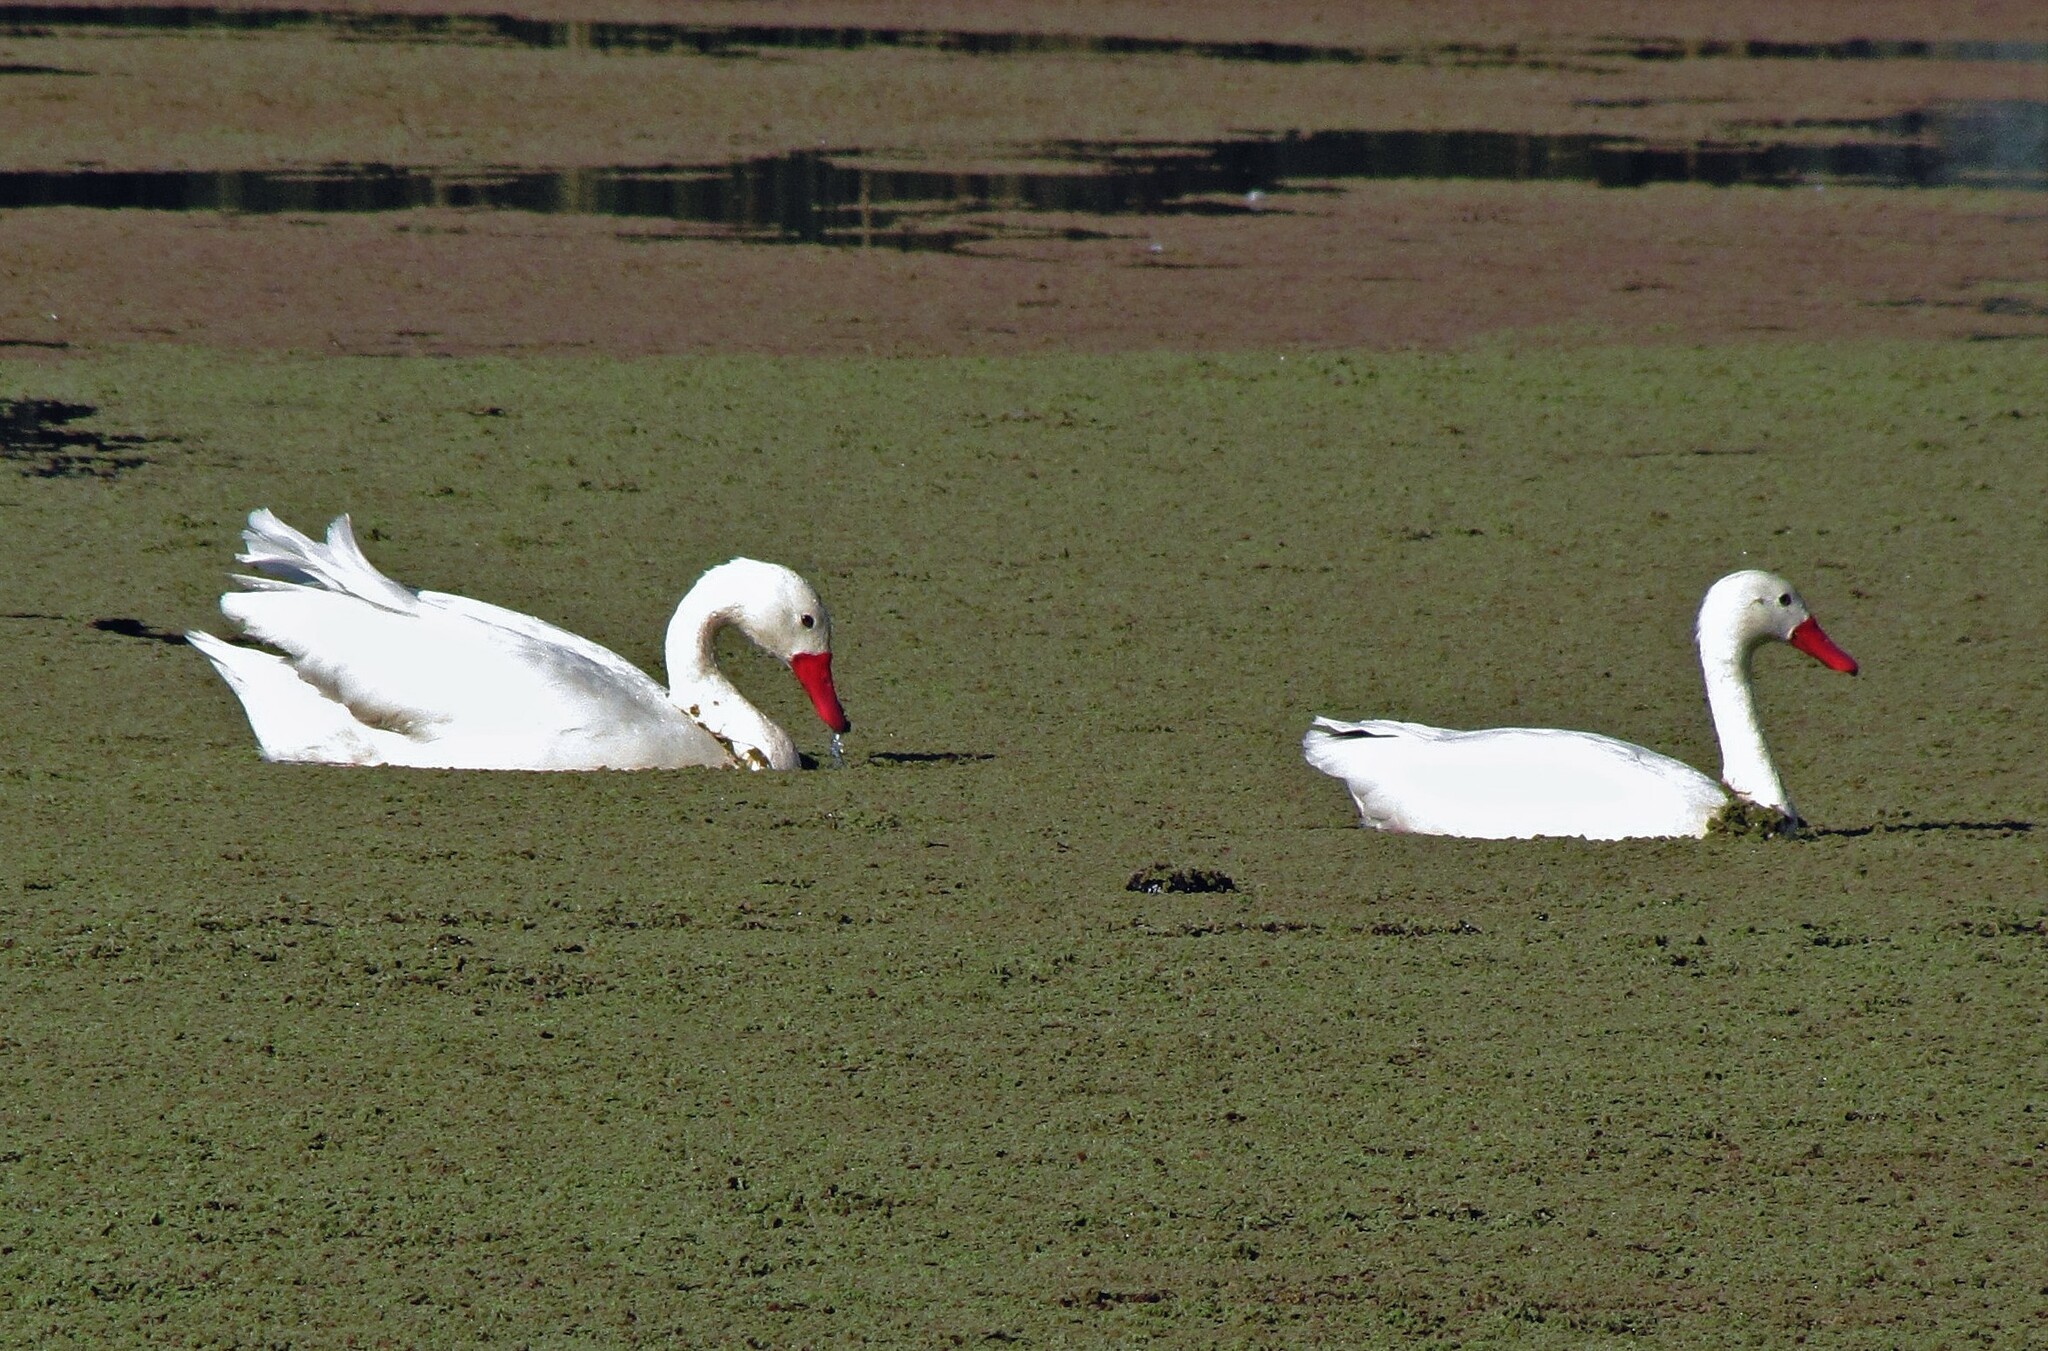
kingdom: Animalia
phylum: Chordata
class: Aves
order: Anseriformes
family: Anatidae
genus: Coscoroba
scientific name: Coscoroba coscoroba
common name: Coscoroba swan
